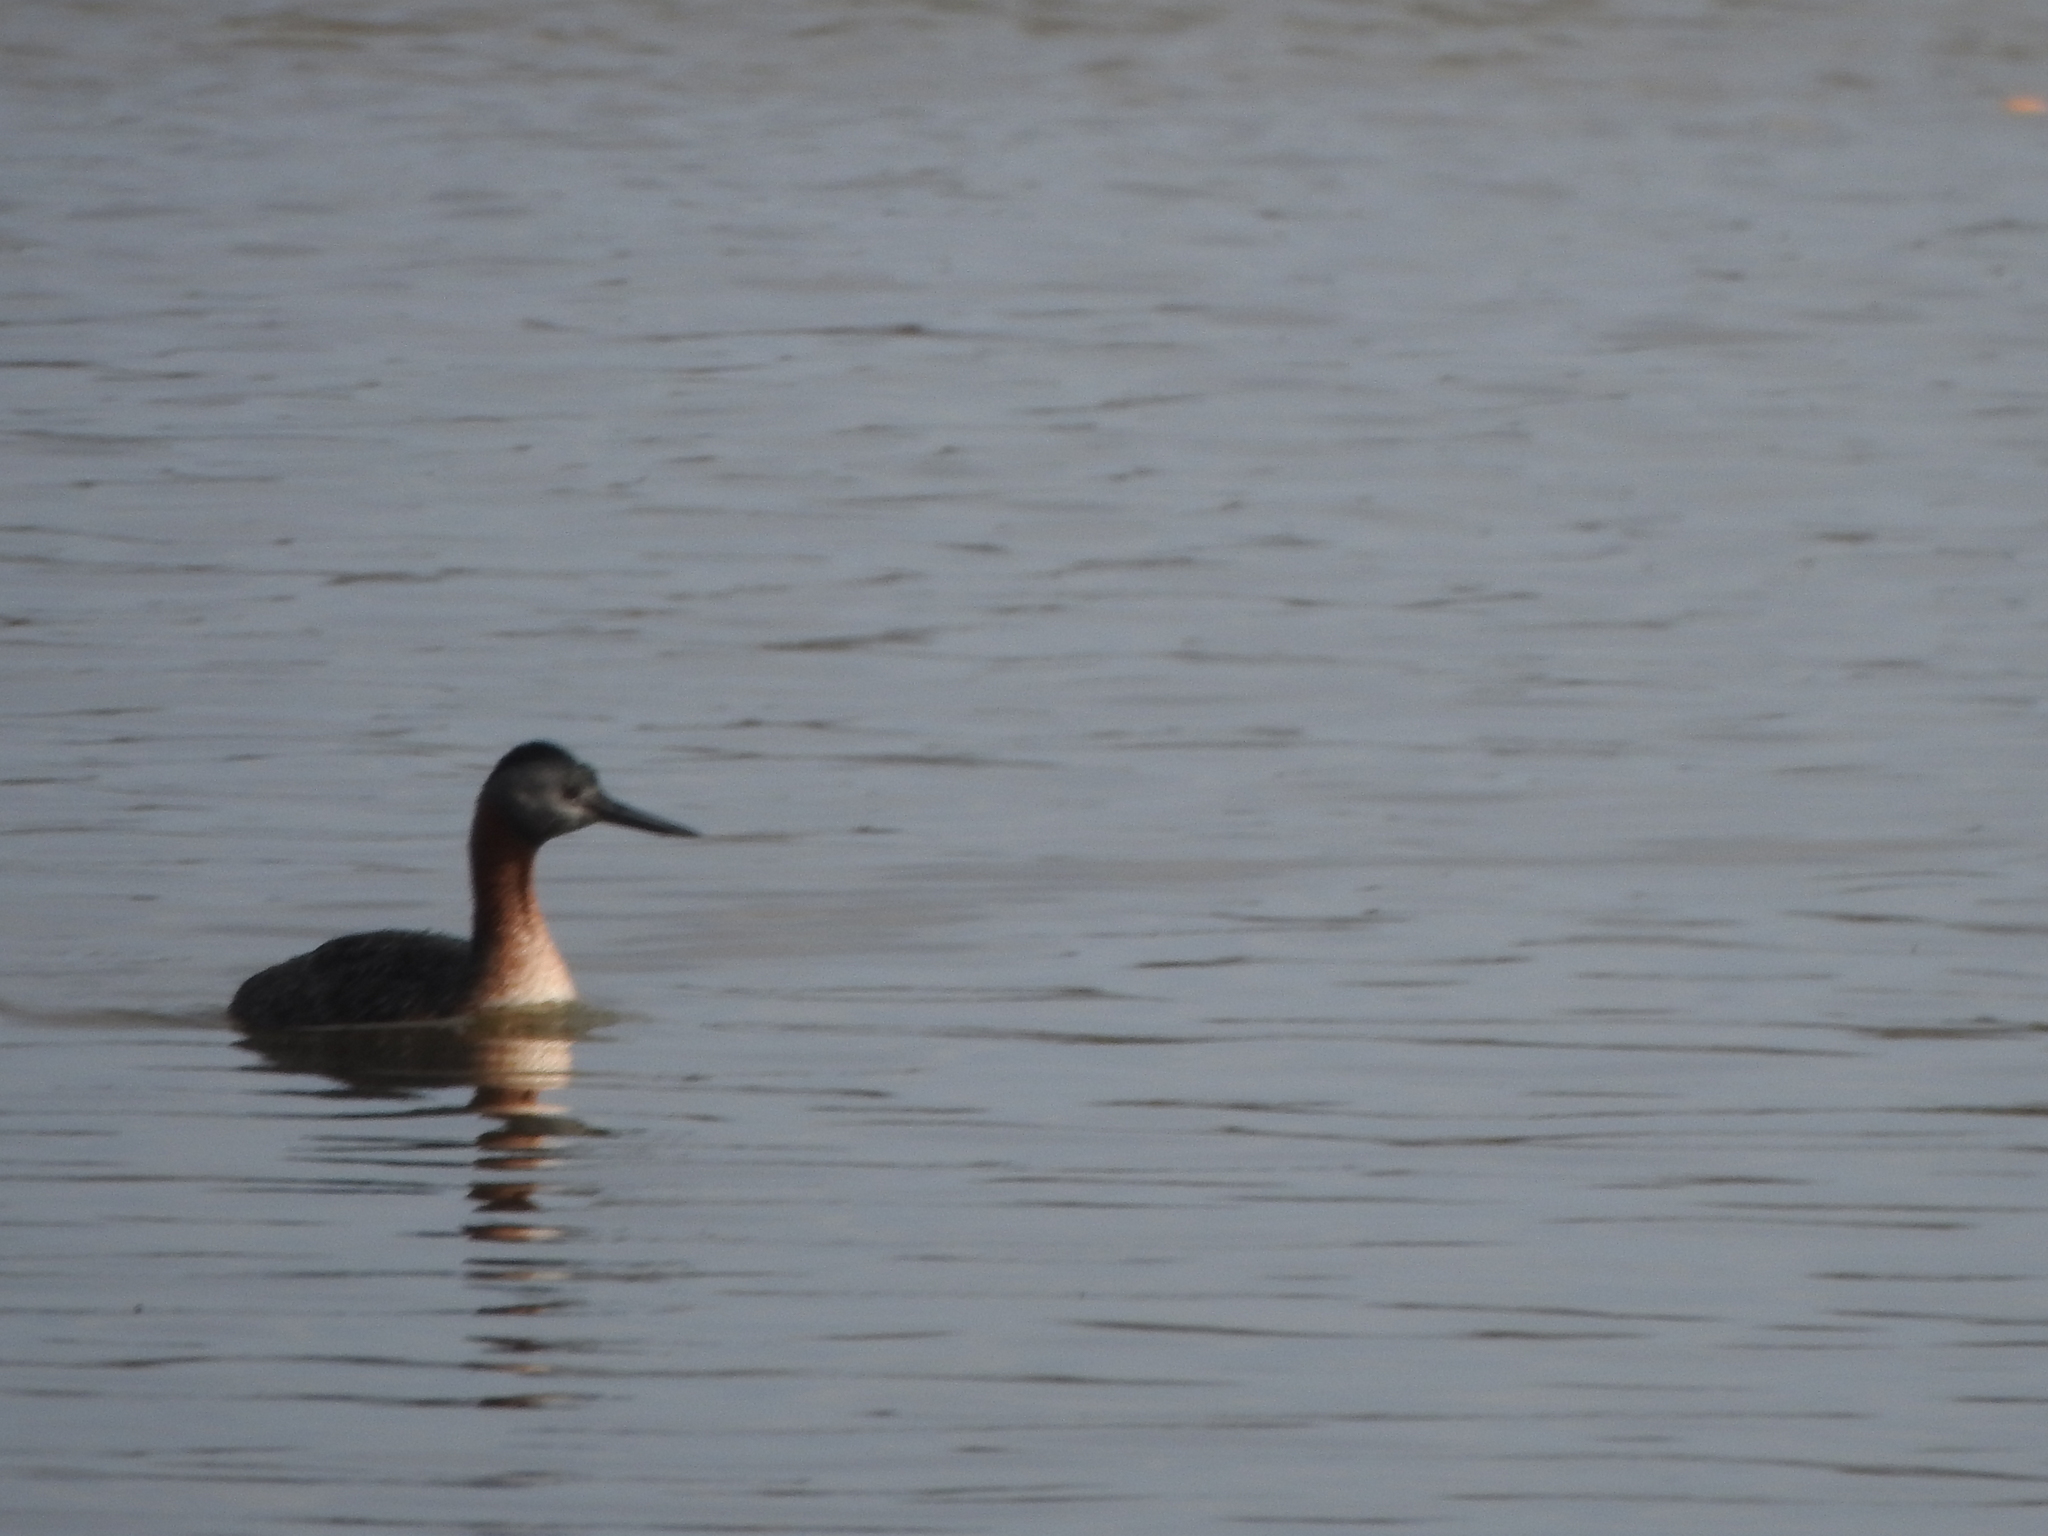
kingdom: Animalia
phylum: Chordata
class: Aves
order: Podicipediformes
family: Podicipedidae
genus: Podiceps
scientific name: Podiceps major
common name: Great grebe
